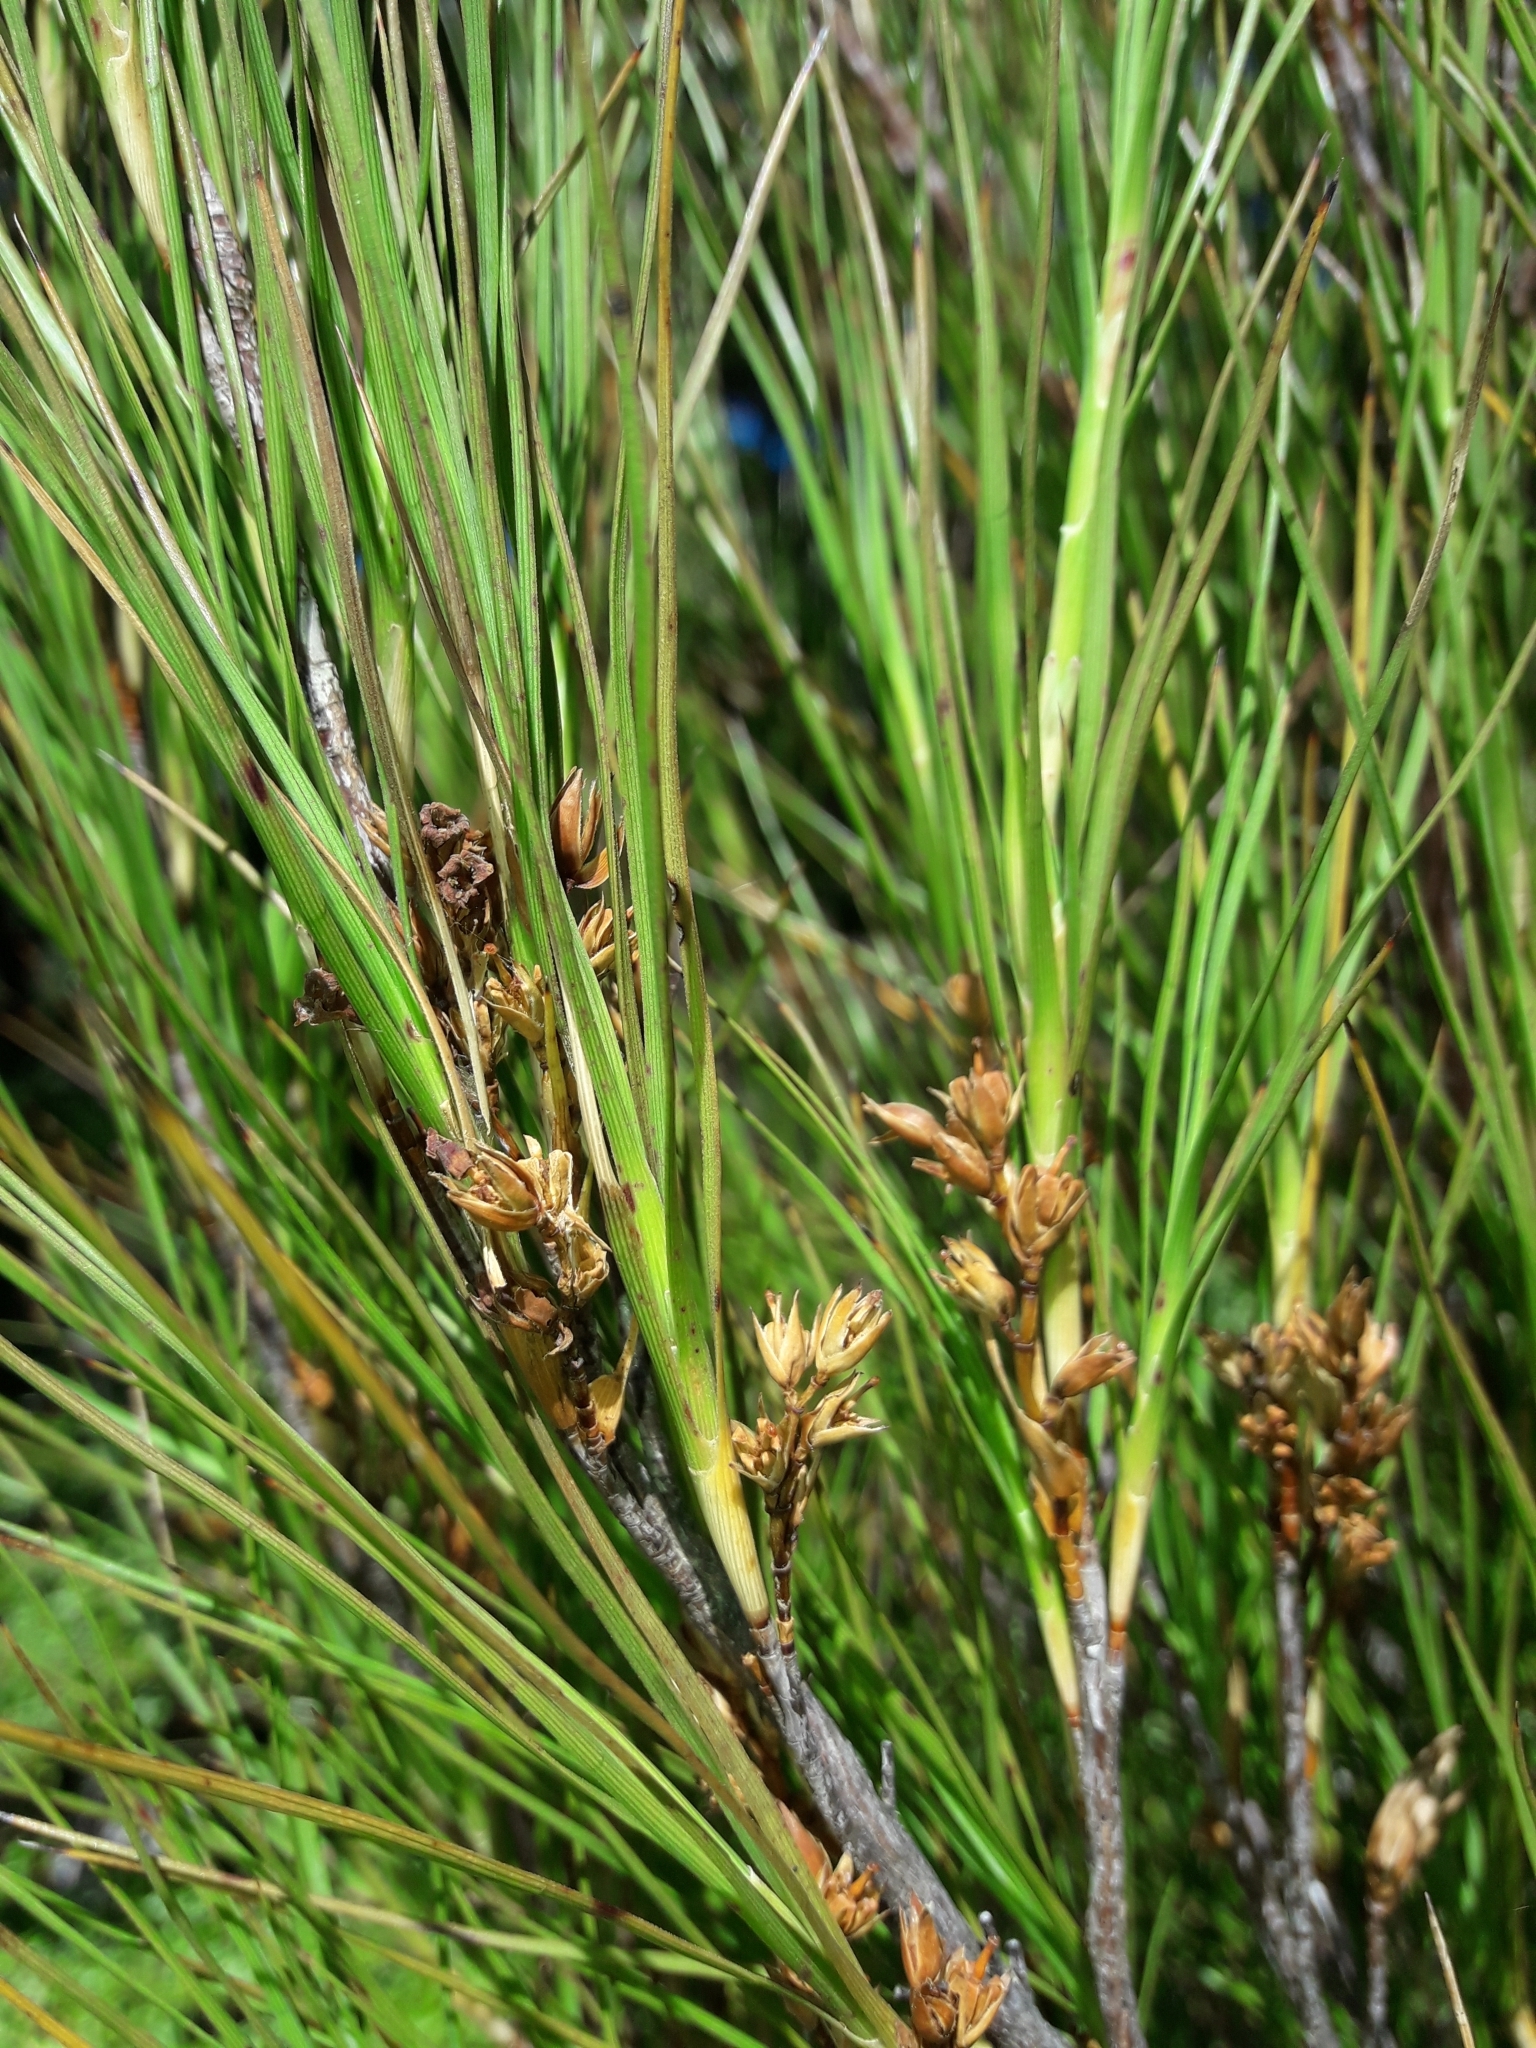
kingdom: Plantae
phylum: Tracheophyta
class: Magnoliopsida
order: Ericales
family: Ericaceae
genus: Dracophyllum
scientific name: Dracophyllum longifolium
